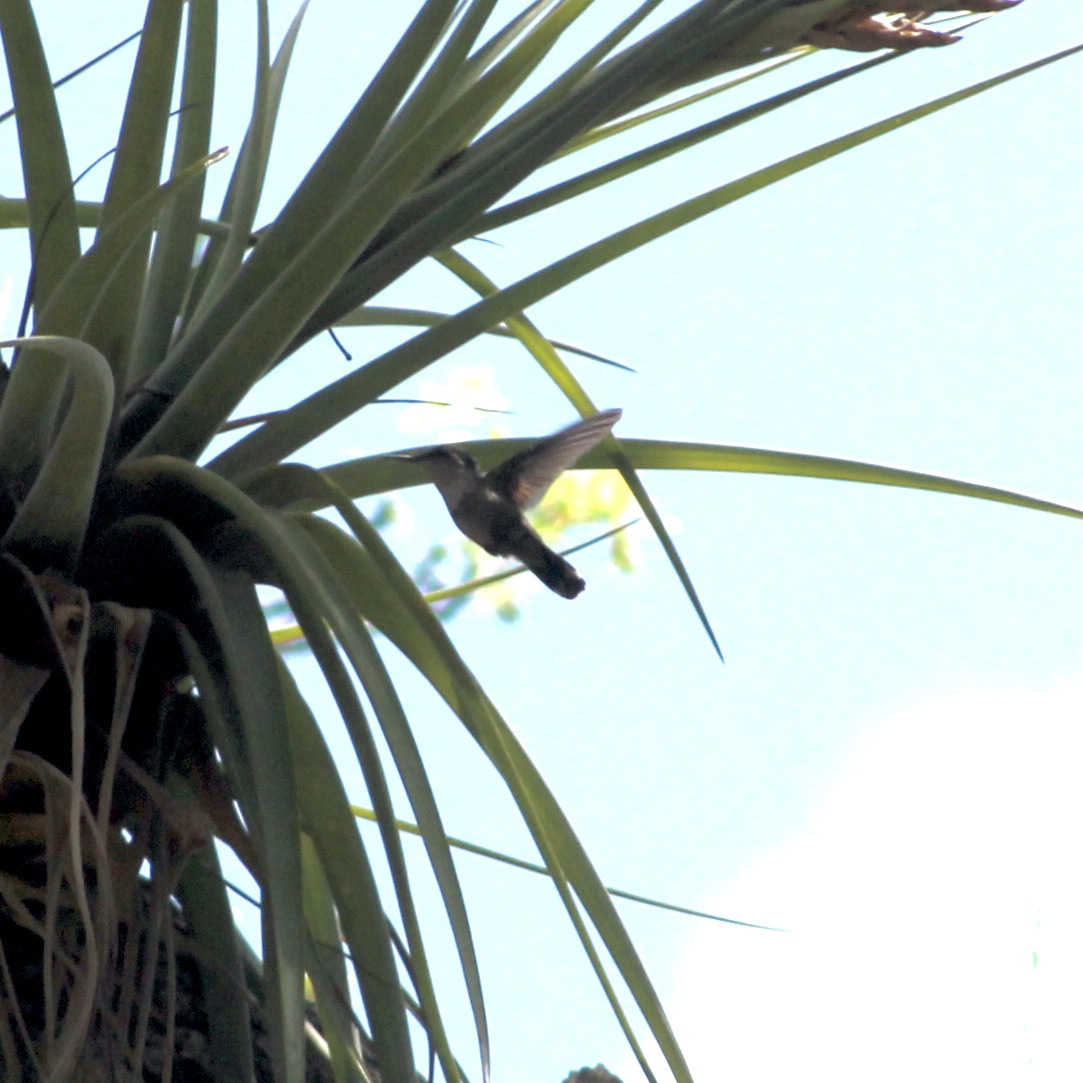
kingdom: Animalia
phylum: Chordata
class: Aves
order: Apodiformes
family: Trochilidae
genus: Orthorhyncus
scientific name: Orthorhyncus cristatus
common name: Antillean crested hummingbird
